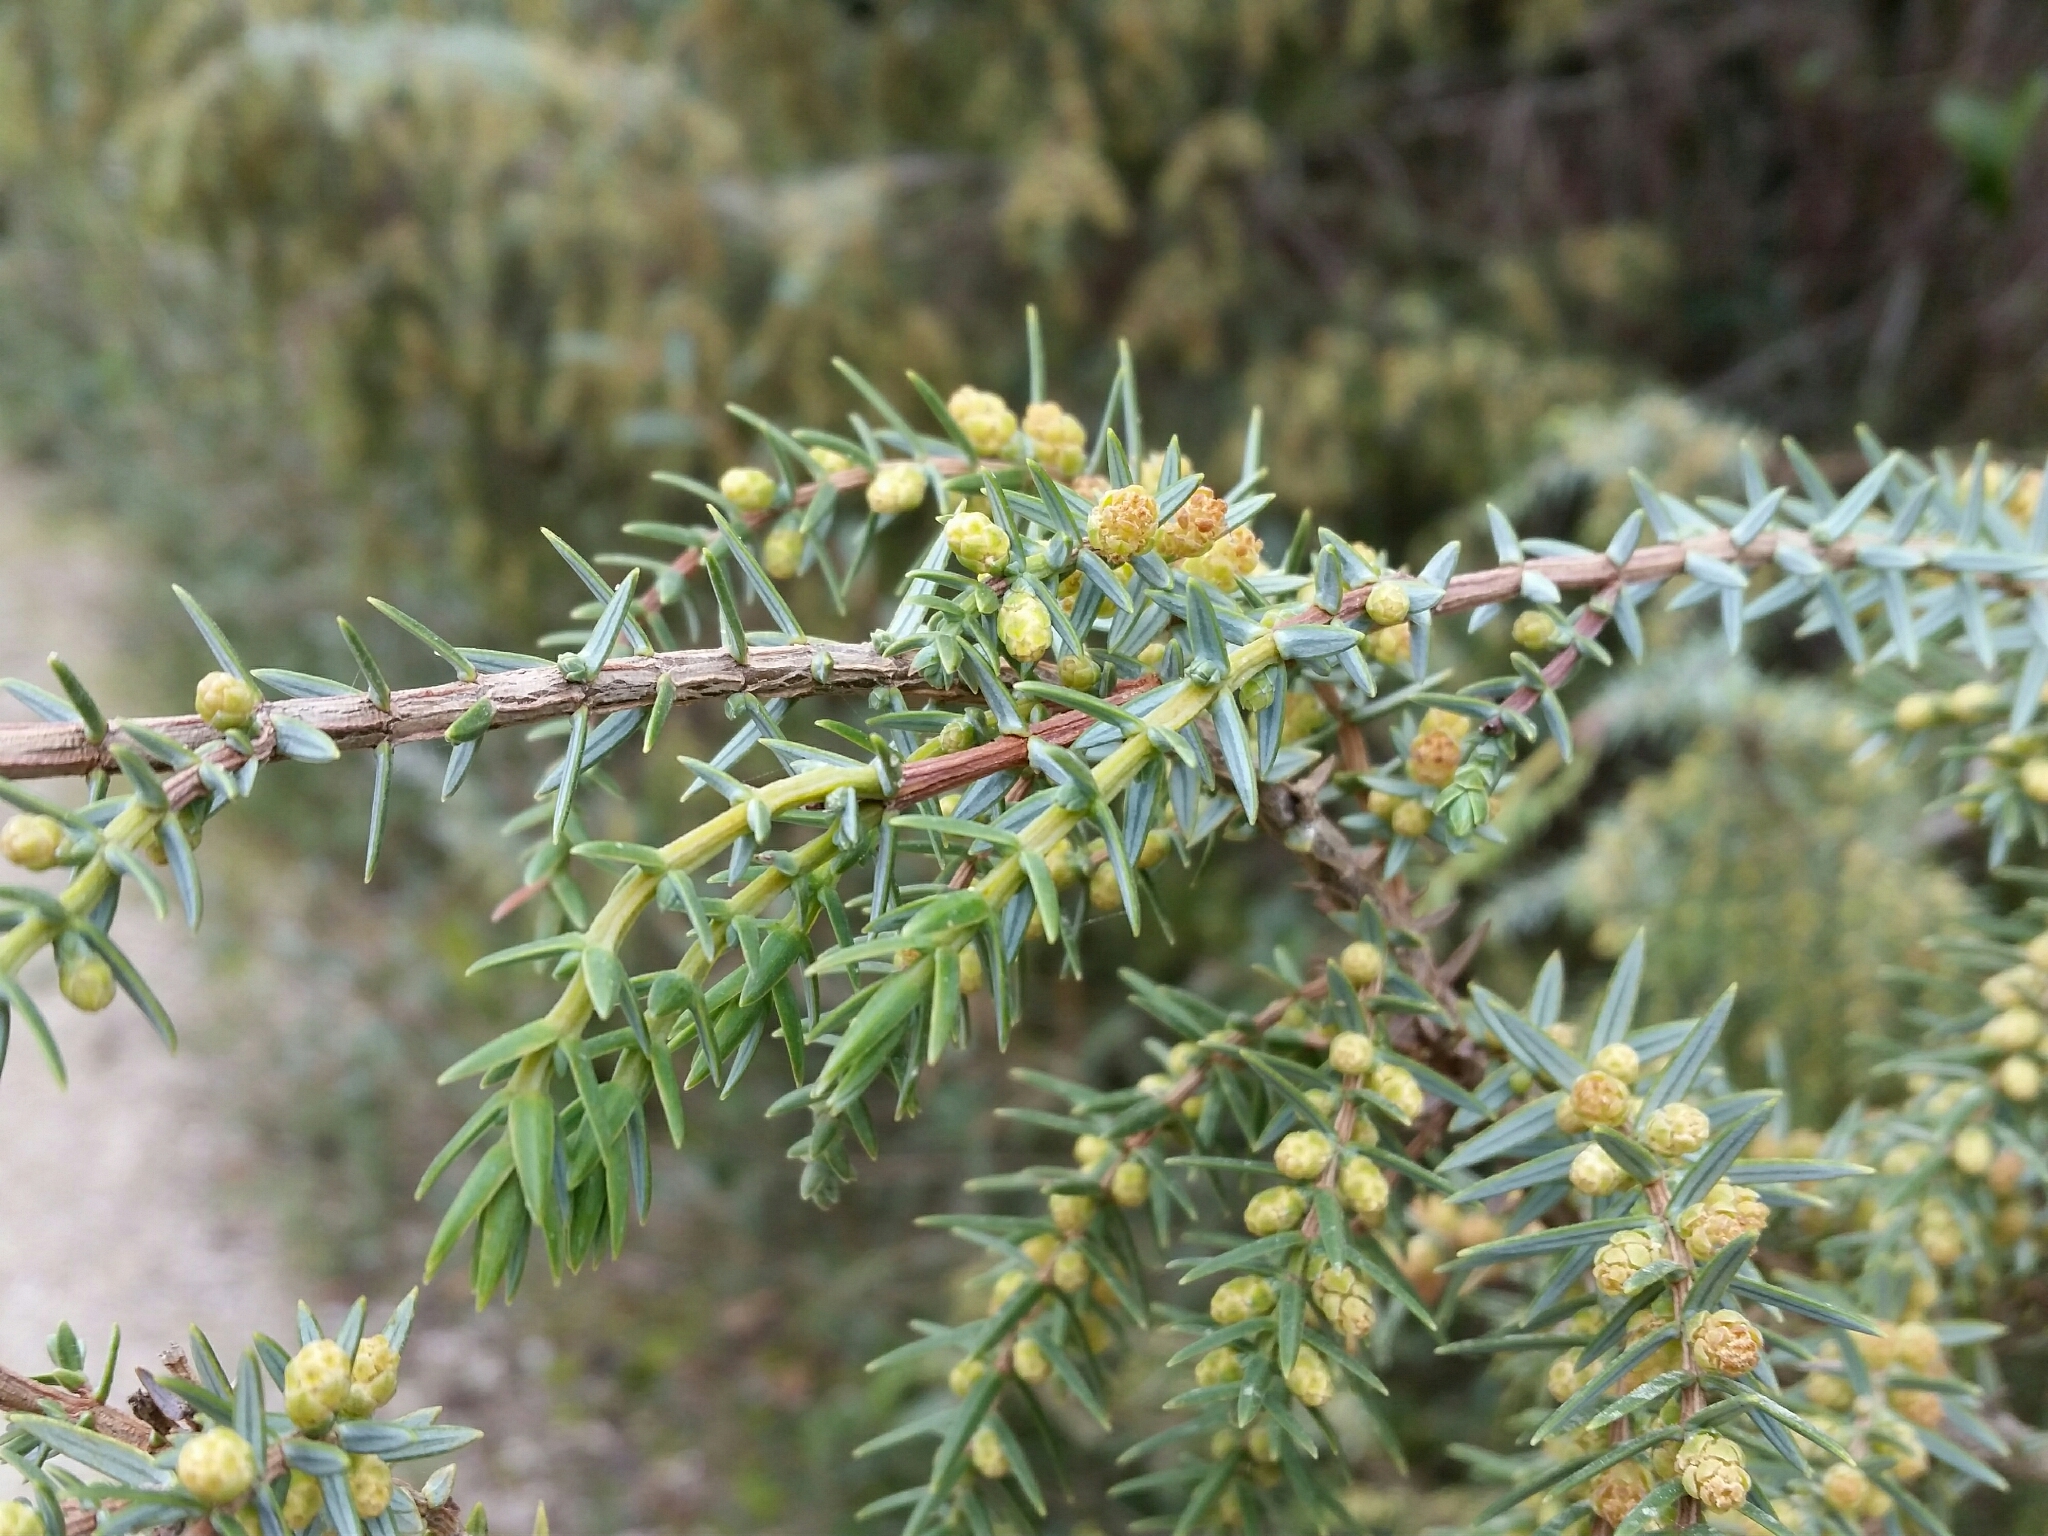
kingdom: Plantae
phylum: Tracheophyta
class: Pinopsida
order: Pinales
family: Cupressaceae
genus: Juniperus
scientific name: Juniperus oxycedrus
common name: Prickly juniper
